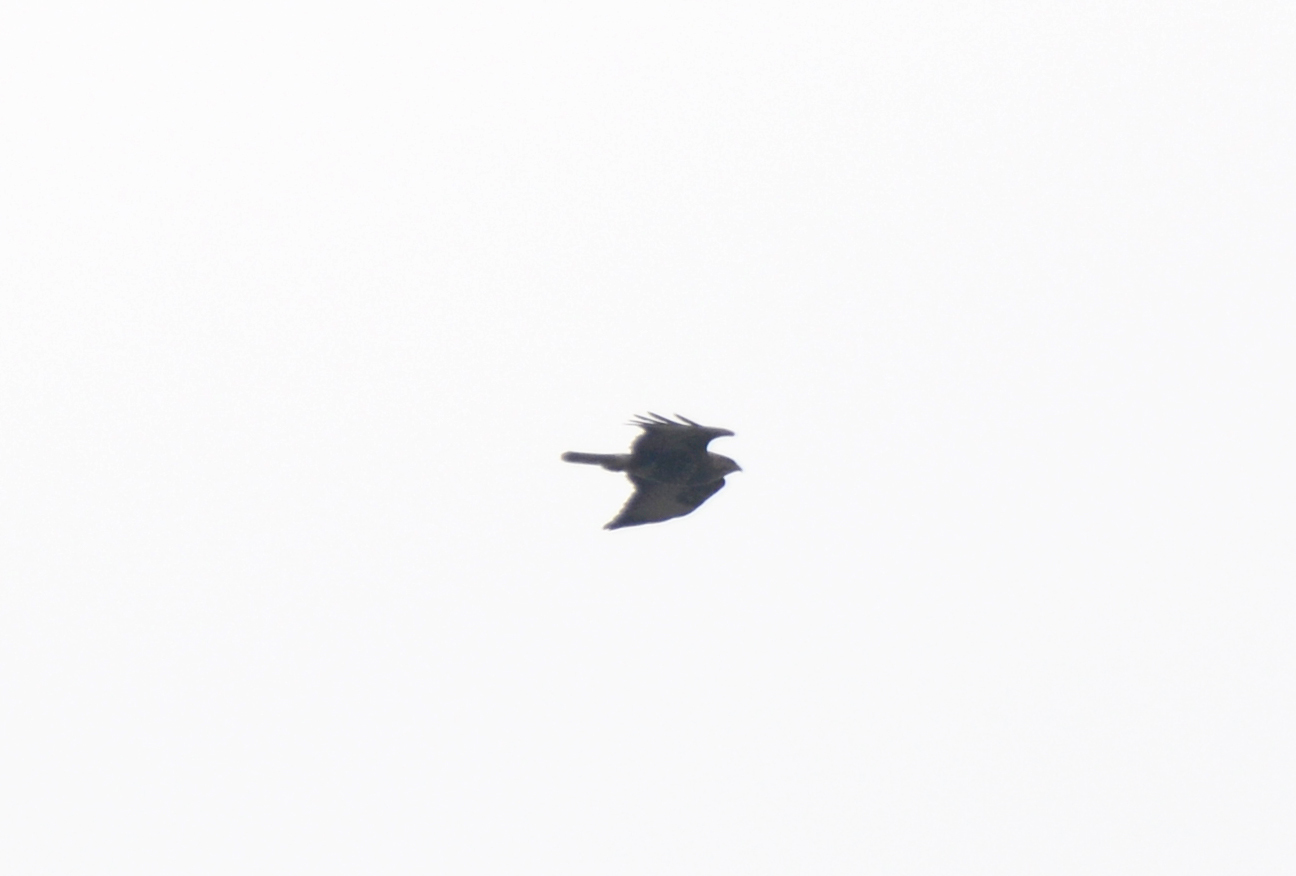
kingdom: Animalia
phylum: Chordata
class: Aves
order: Accipitriformes
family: Accipitridae
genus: Buteo
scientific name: Buteo buteo
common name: Common buzzard
